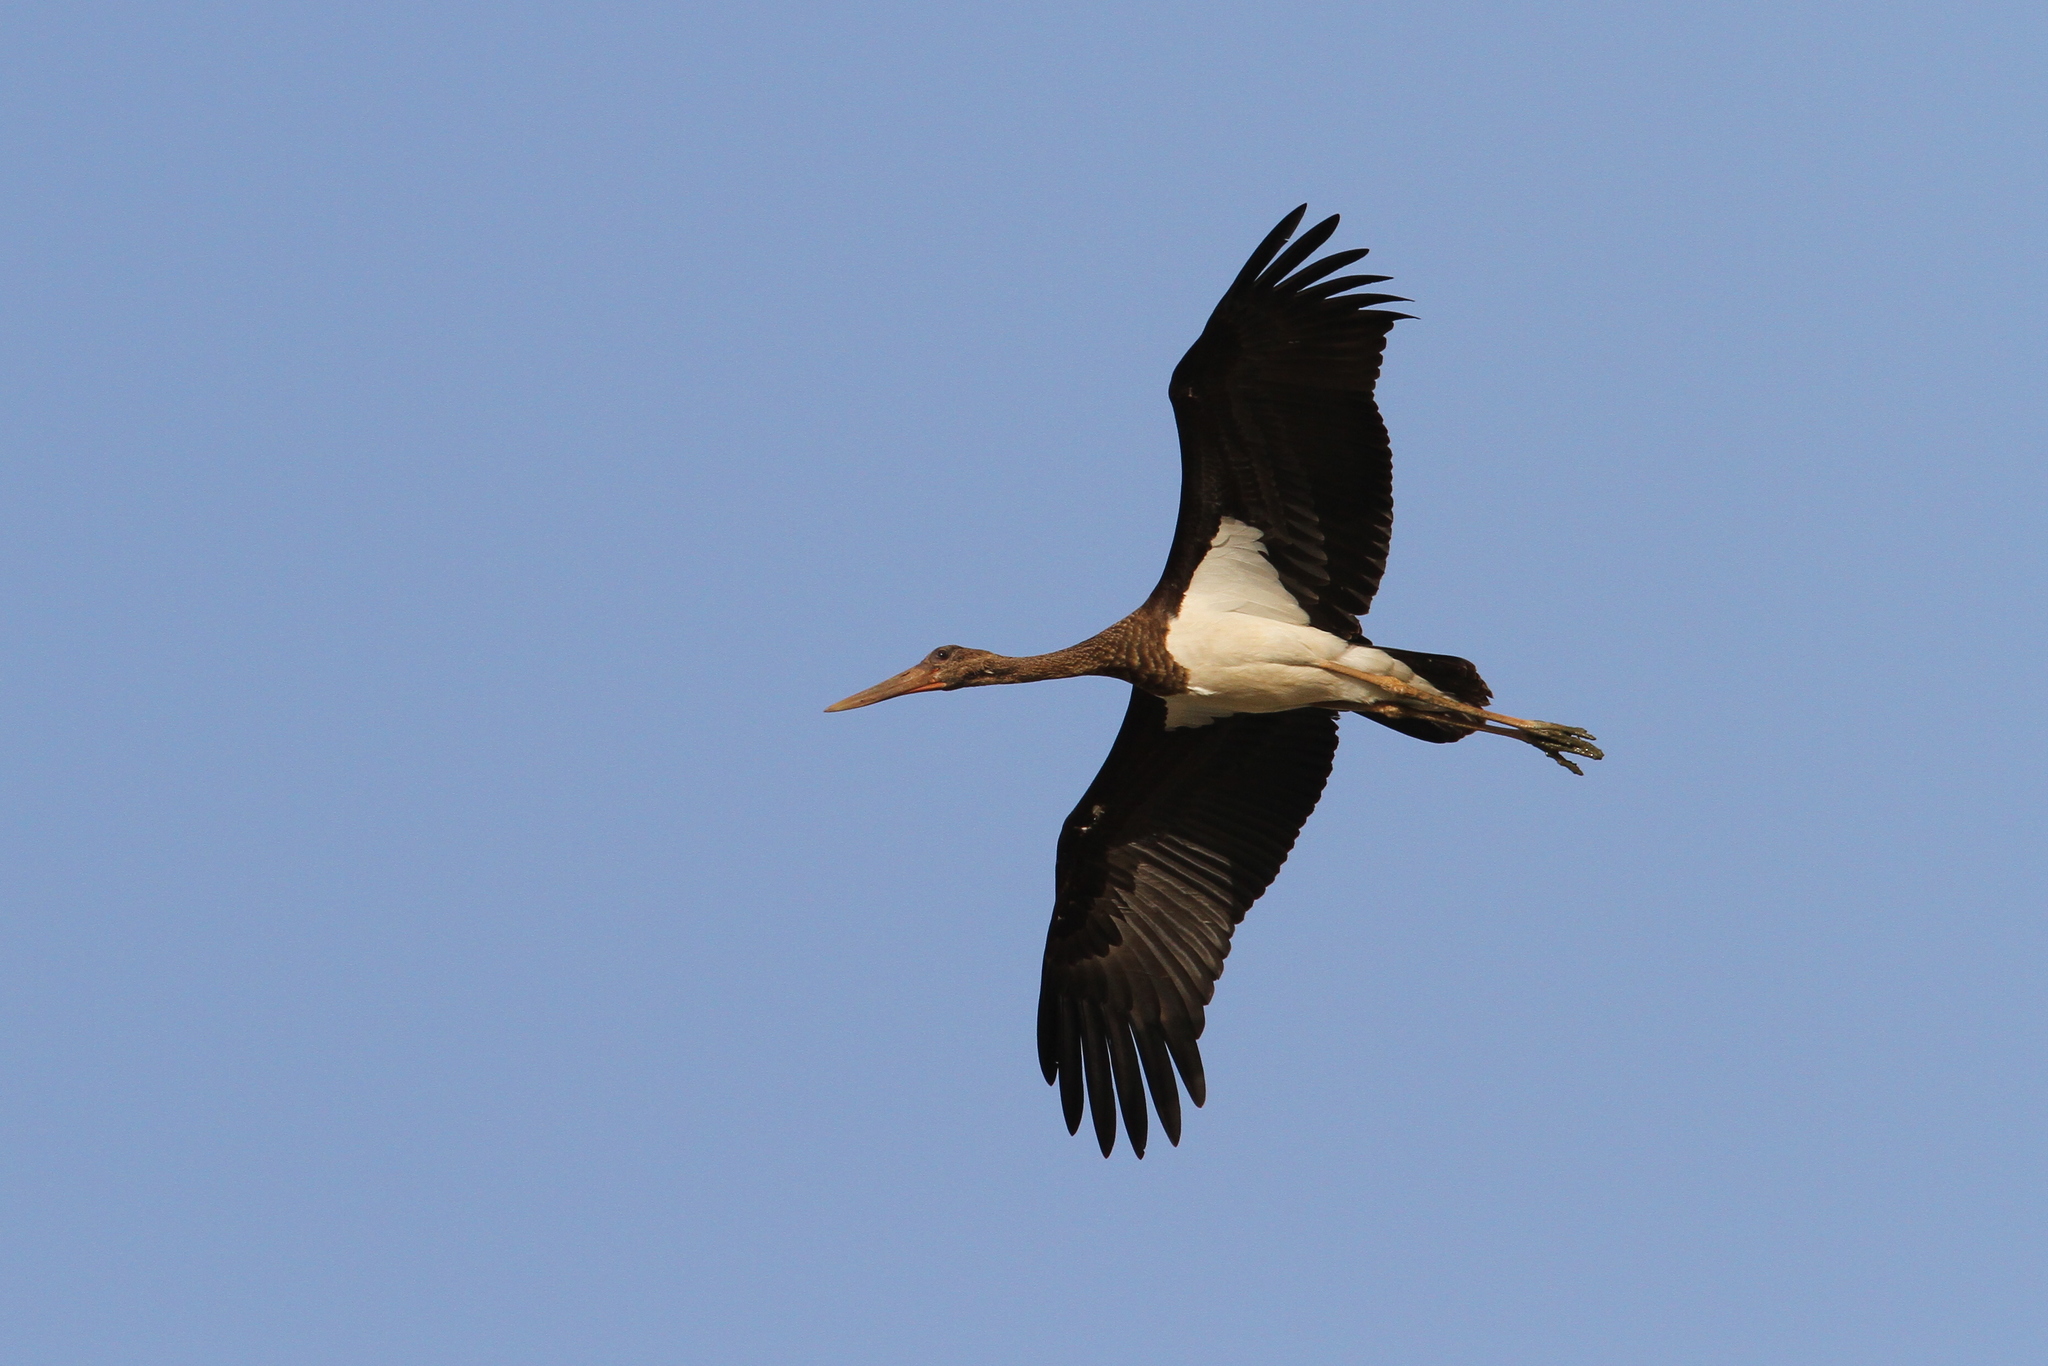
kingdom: Animalia
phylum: Chordata
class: Aves
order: Ciconiiformes
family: Ciconiidae
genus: Ciconia
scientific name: Ciconia nigra
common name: Black stork
